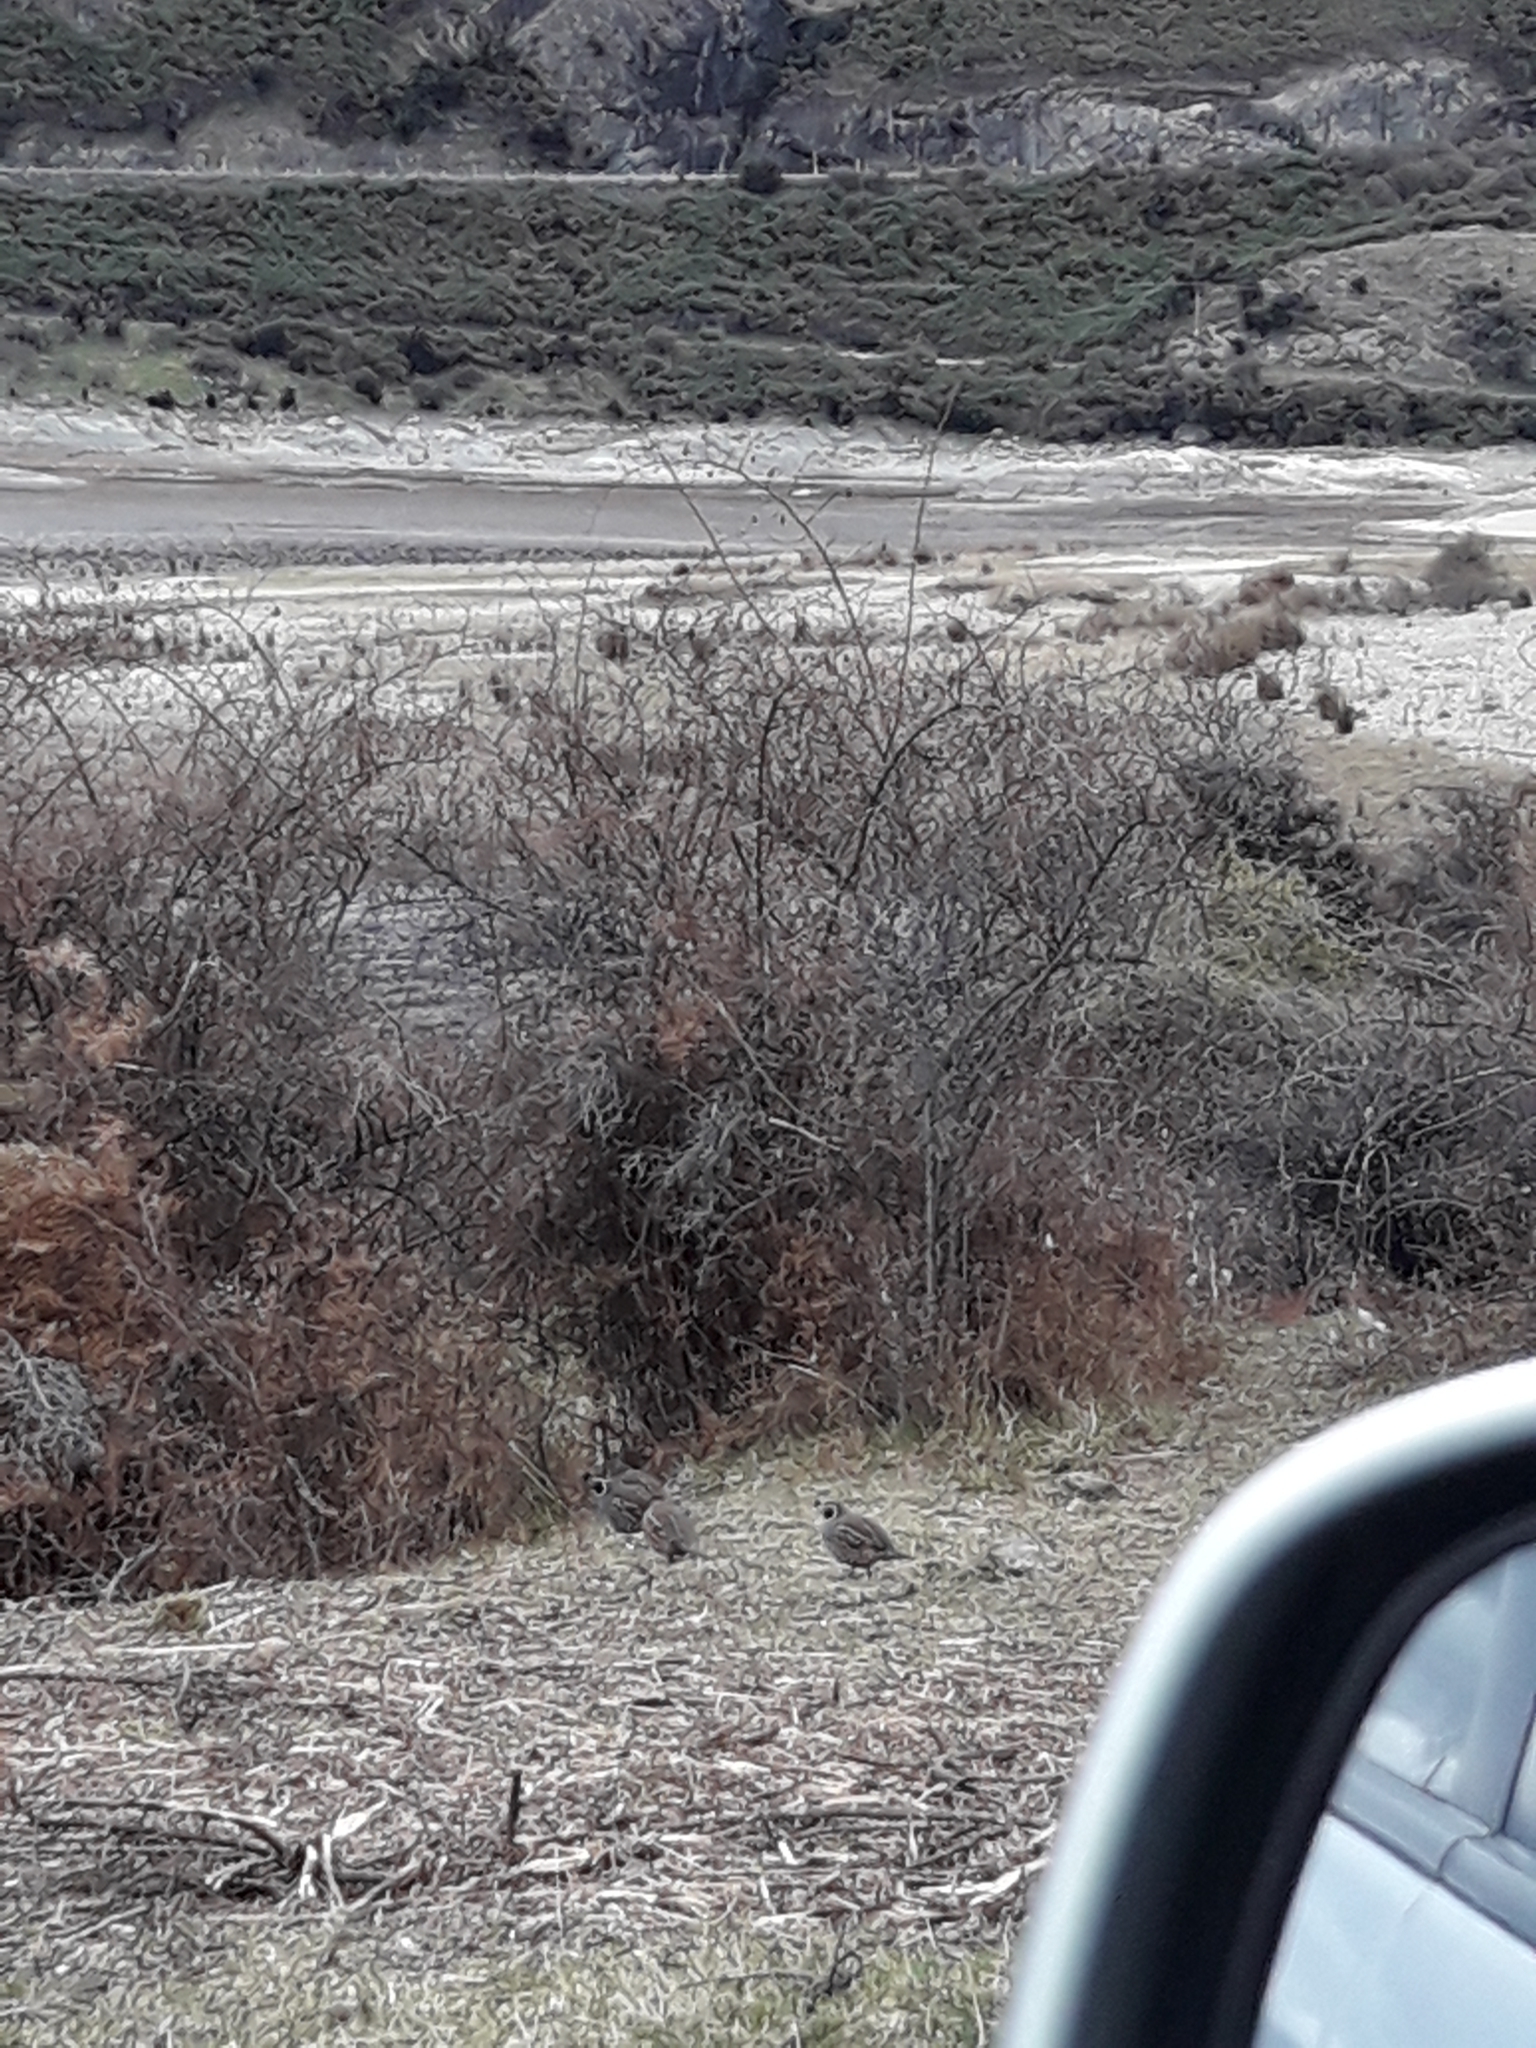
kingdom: Animalia
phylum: Chordata
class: Aves
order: Galliformes
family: Odontophoridae
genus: Callipepla
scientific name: Callipepla californica
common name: California quail
